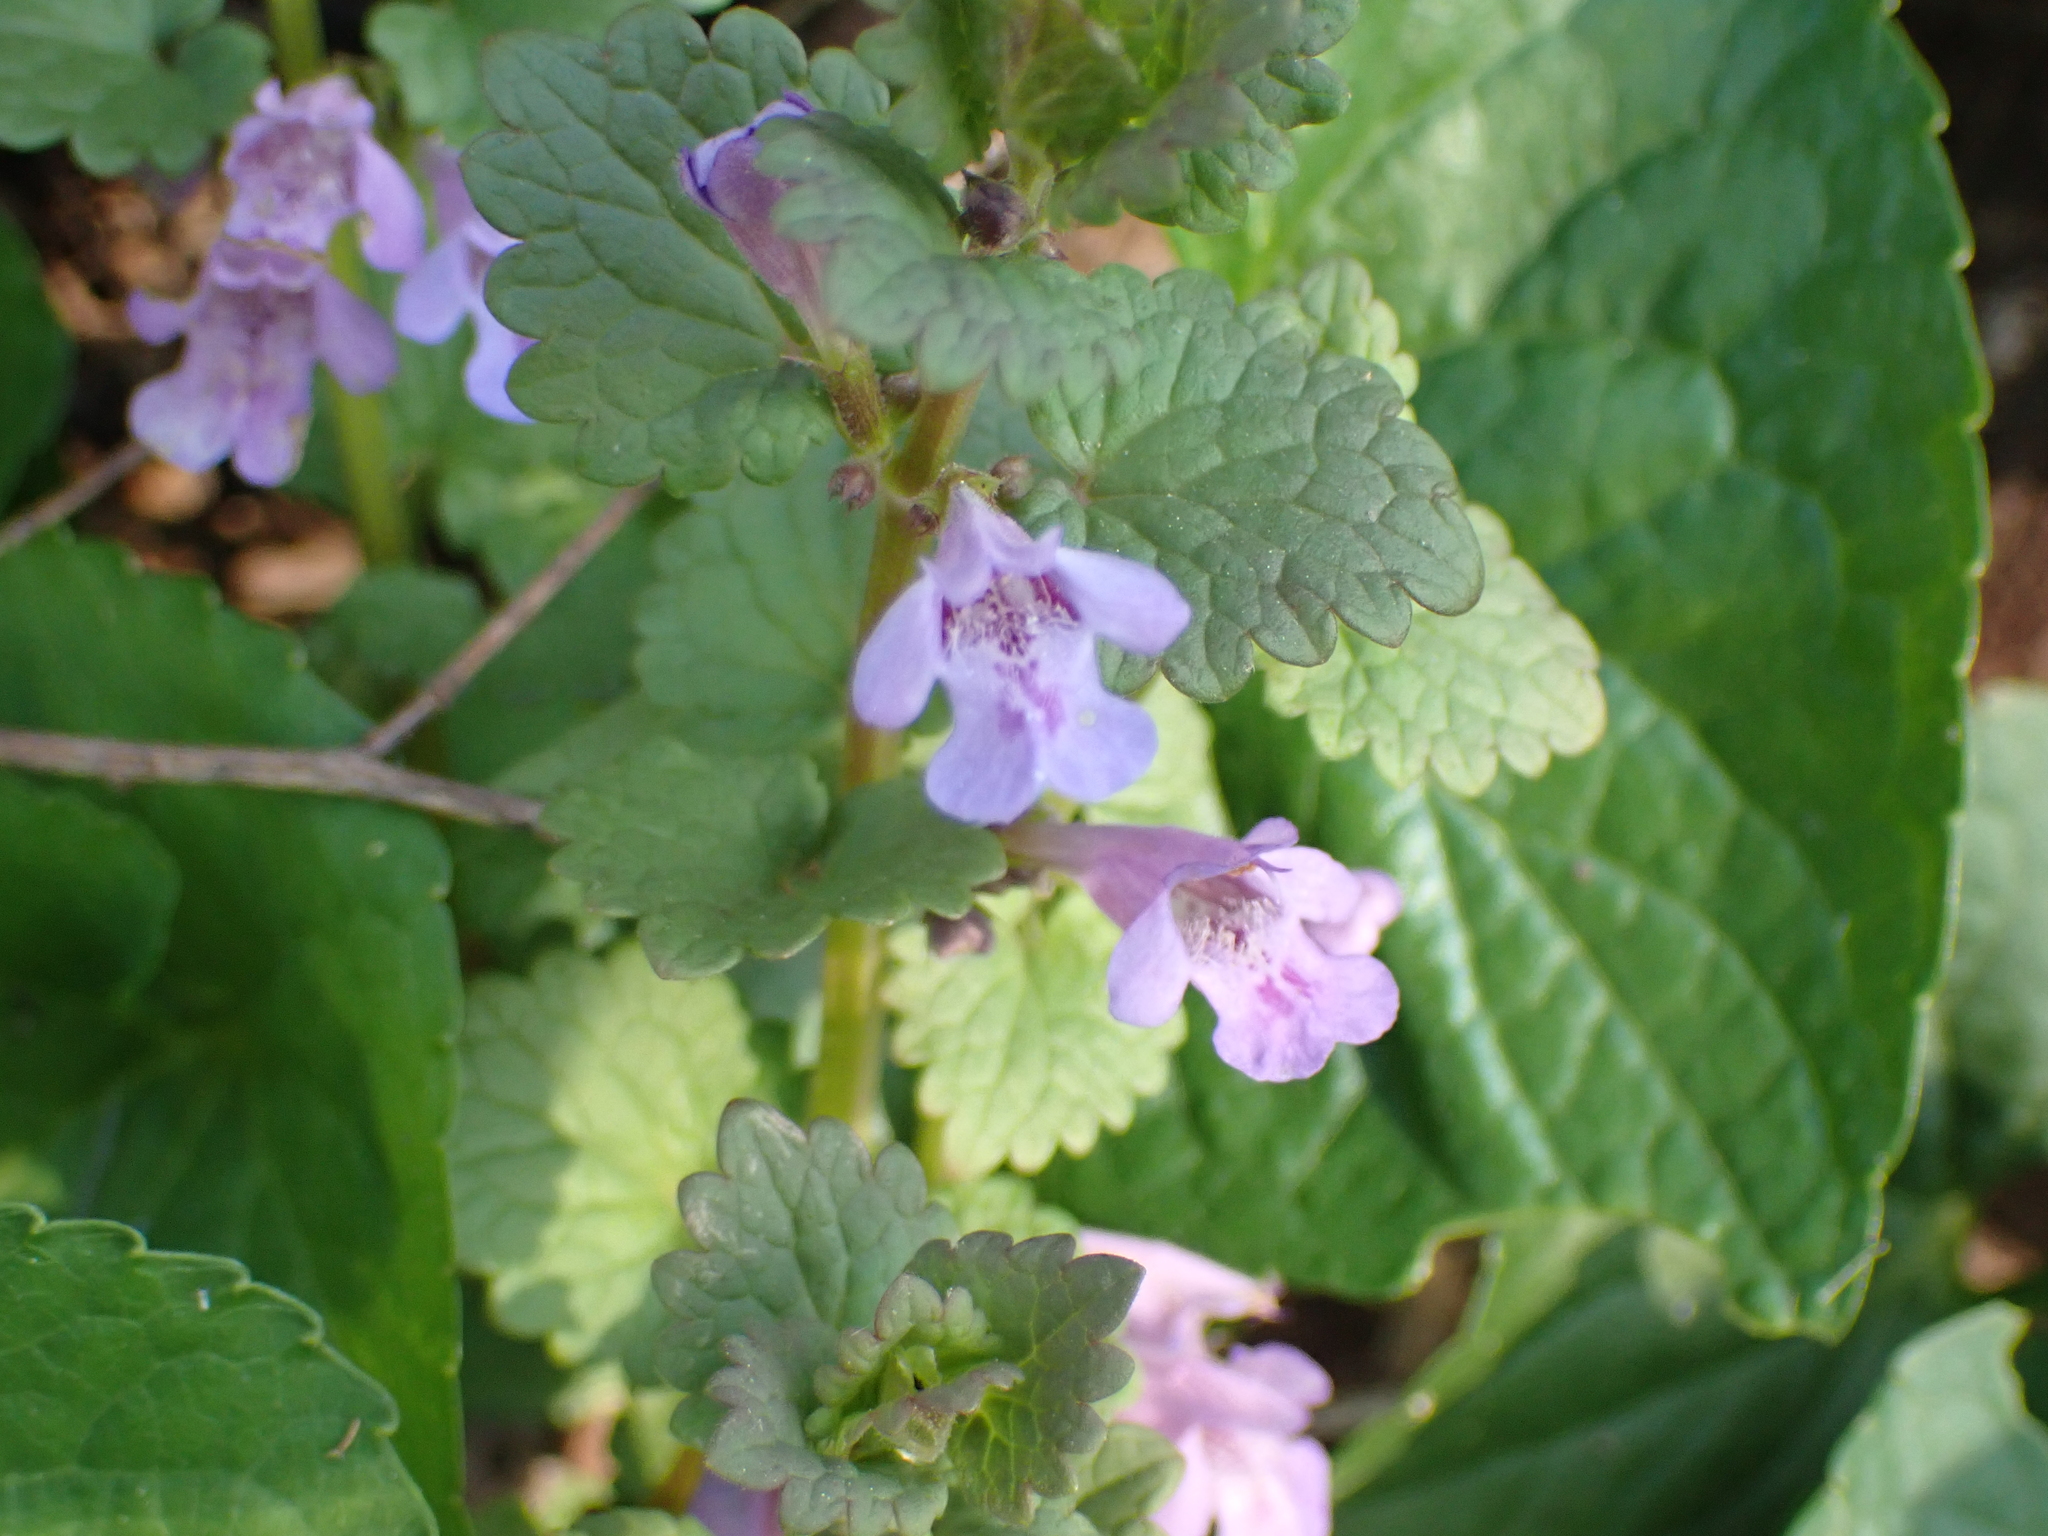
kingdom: Plantae
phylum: Tracheophyta
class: Magnoliopsida
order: Lamiales
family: Lamiaceae
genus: Glechoma
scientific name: Glechoma hederacea
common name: Ground ivy
